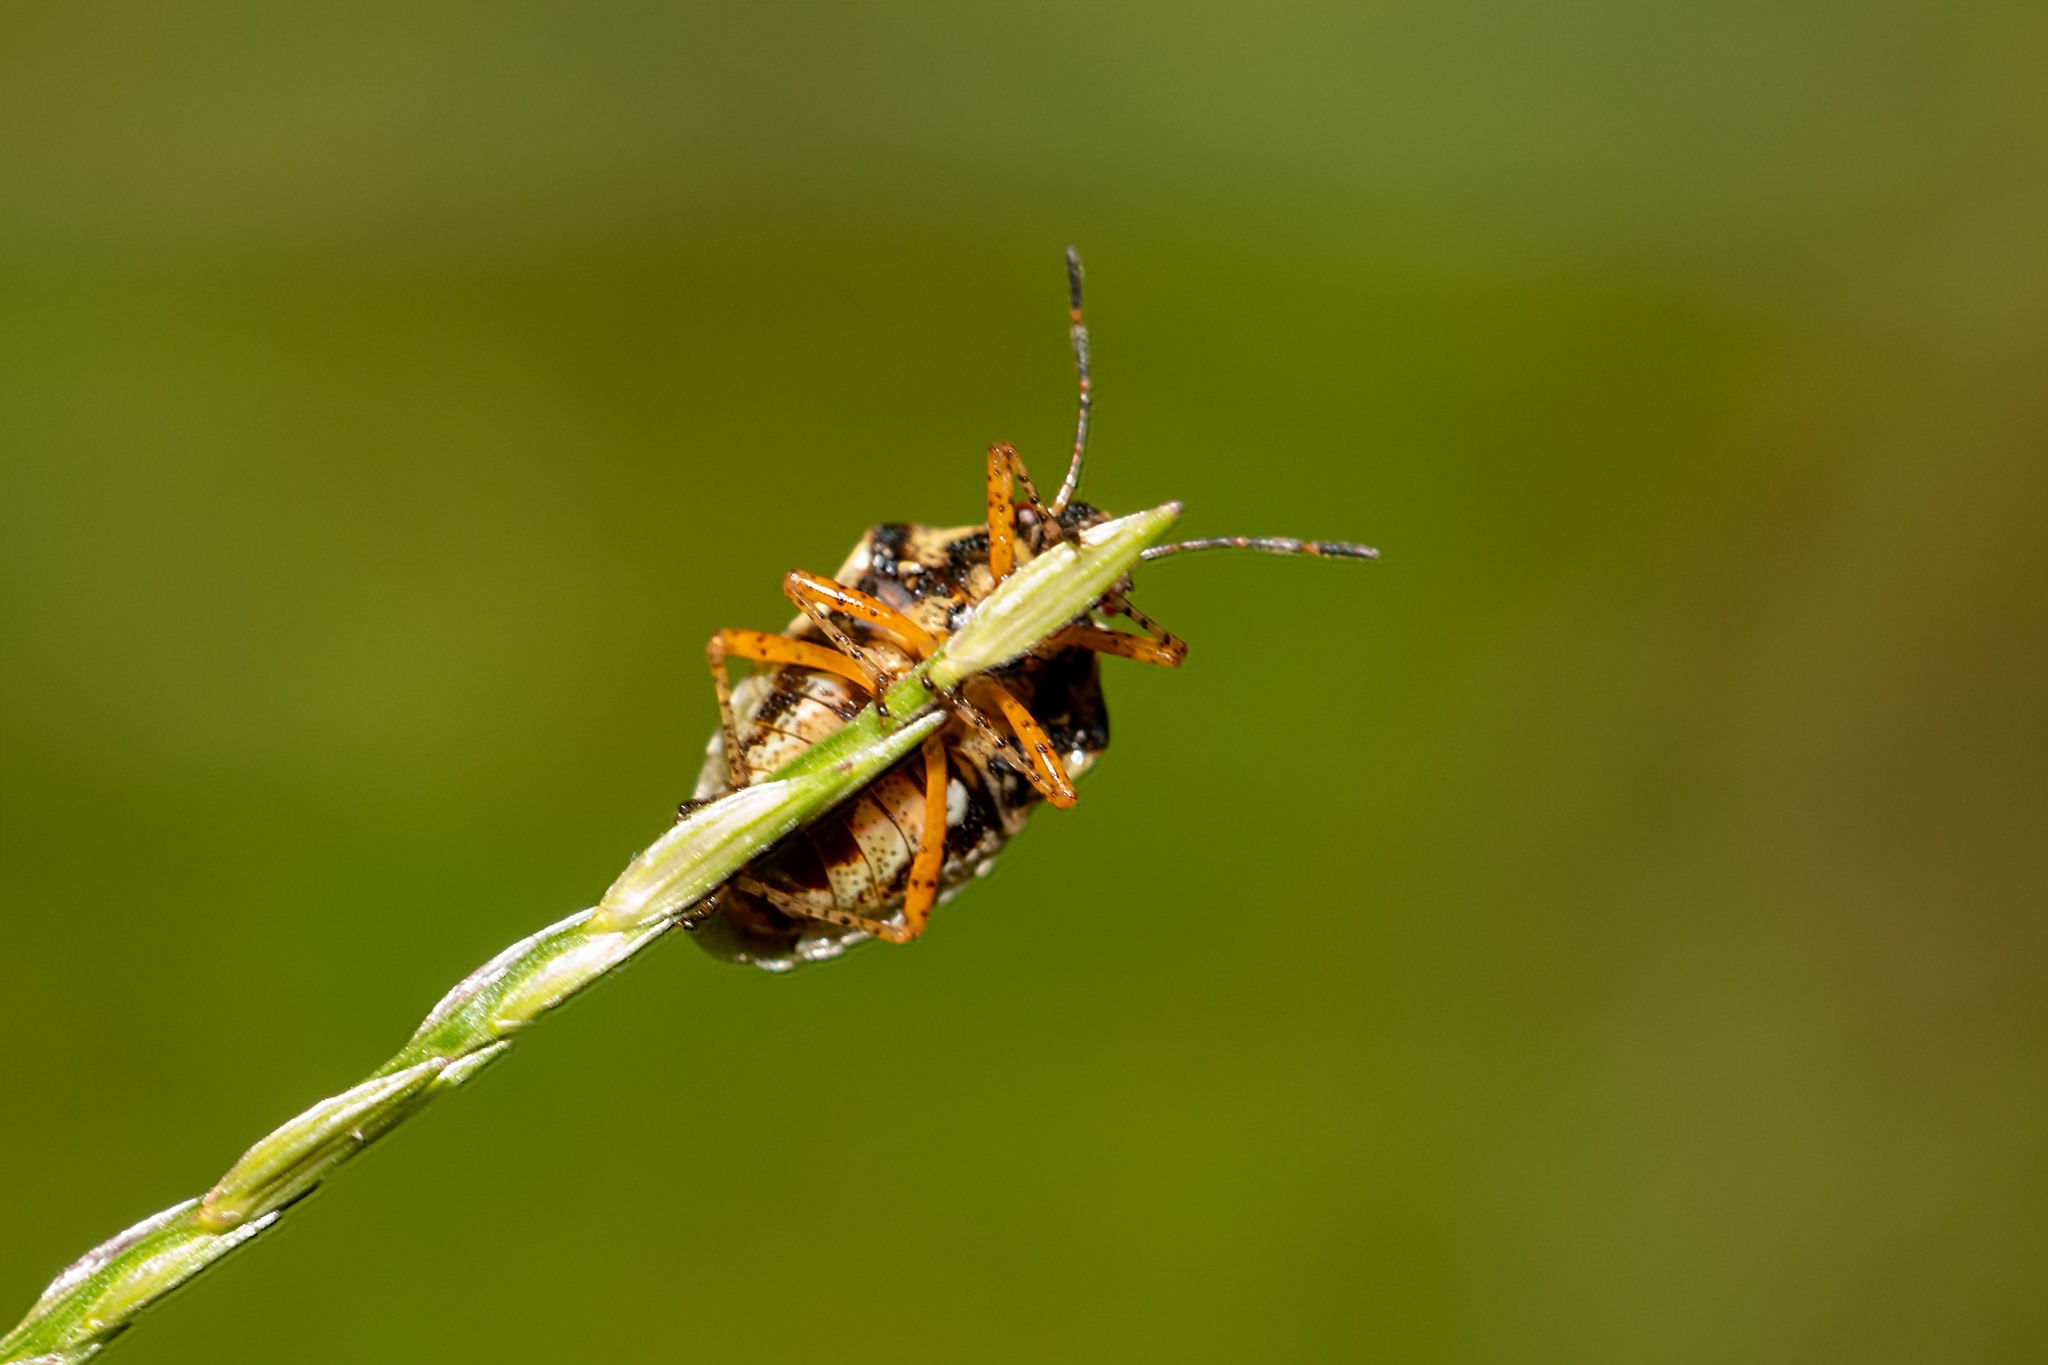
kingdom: Animalia
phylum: Arthropoda
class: Insecta
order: Hemiptera
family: Pentatomidae
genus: Mormidea
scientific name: Mormidea pama
